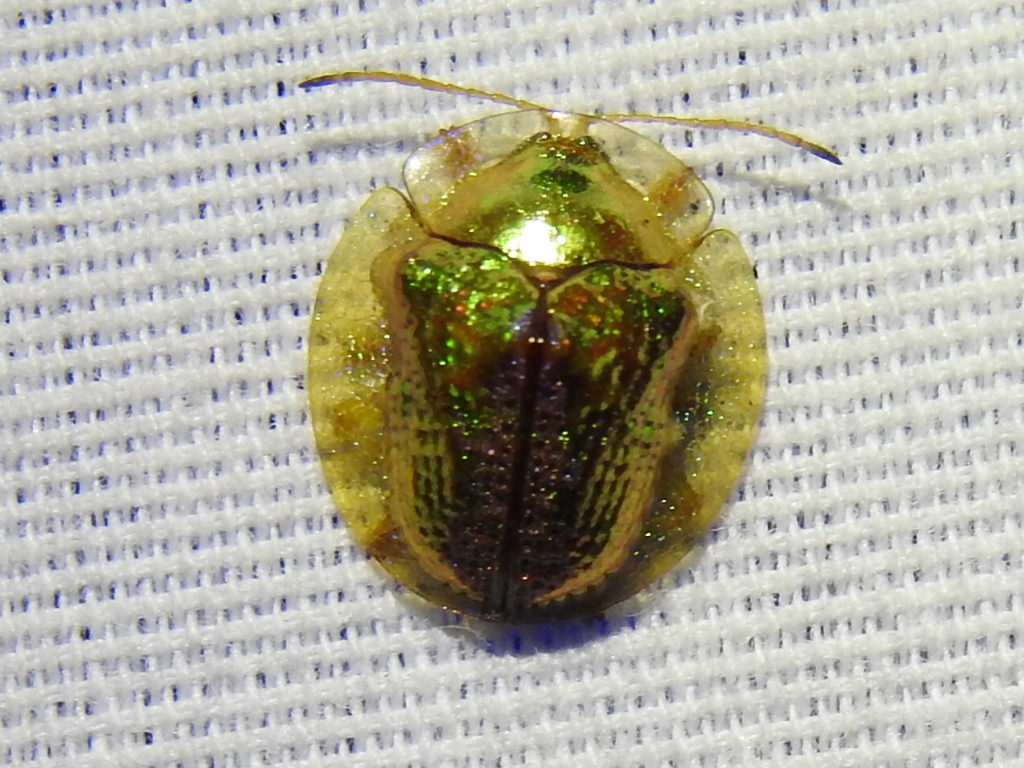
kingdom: Animalia
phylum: Arthropoda
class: Insecta
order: Coleoptera
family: Chrysomelidae
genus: Coptocycla
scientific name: Coptocycla texana
